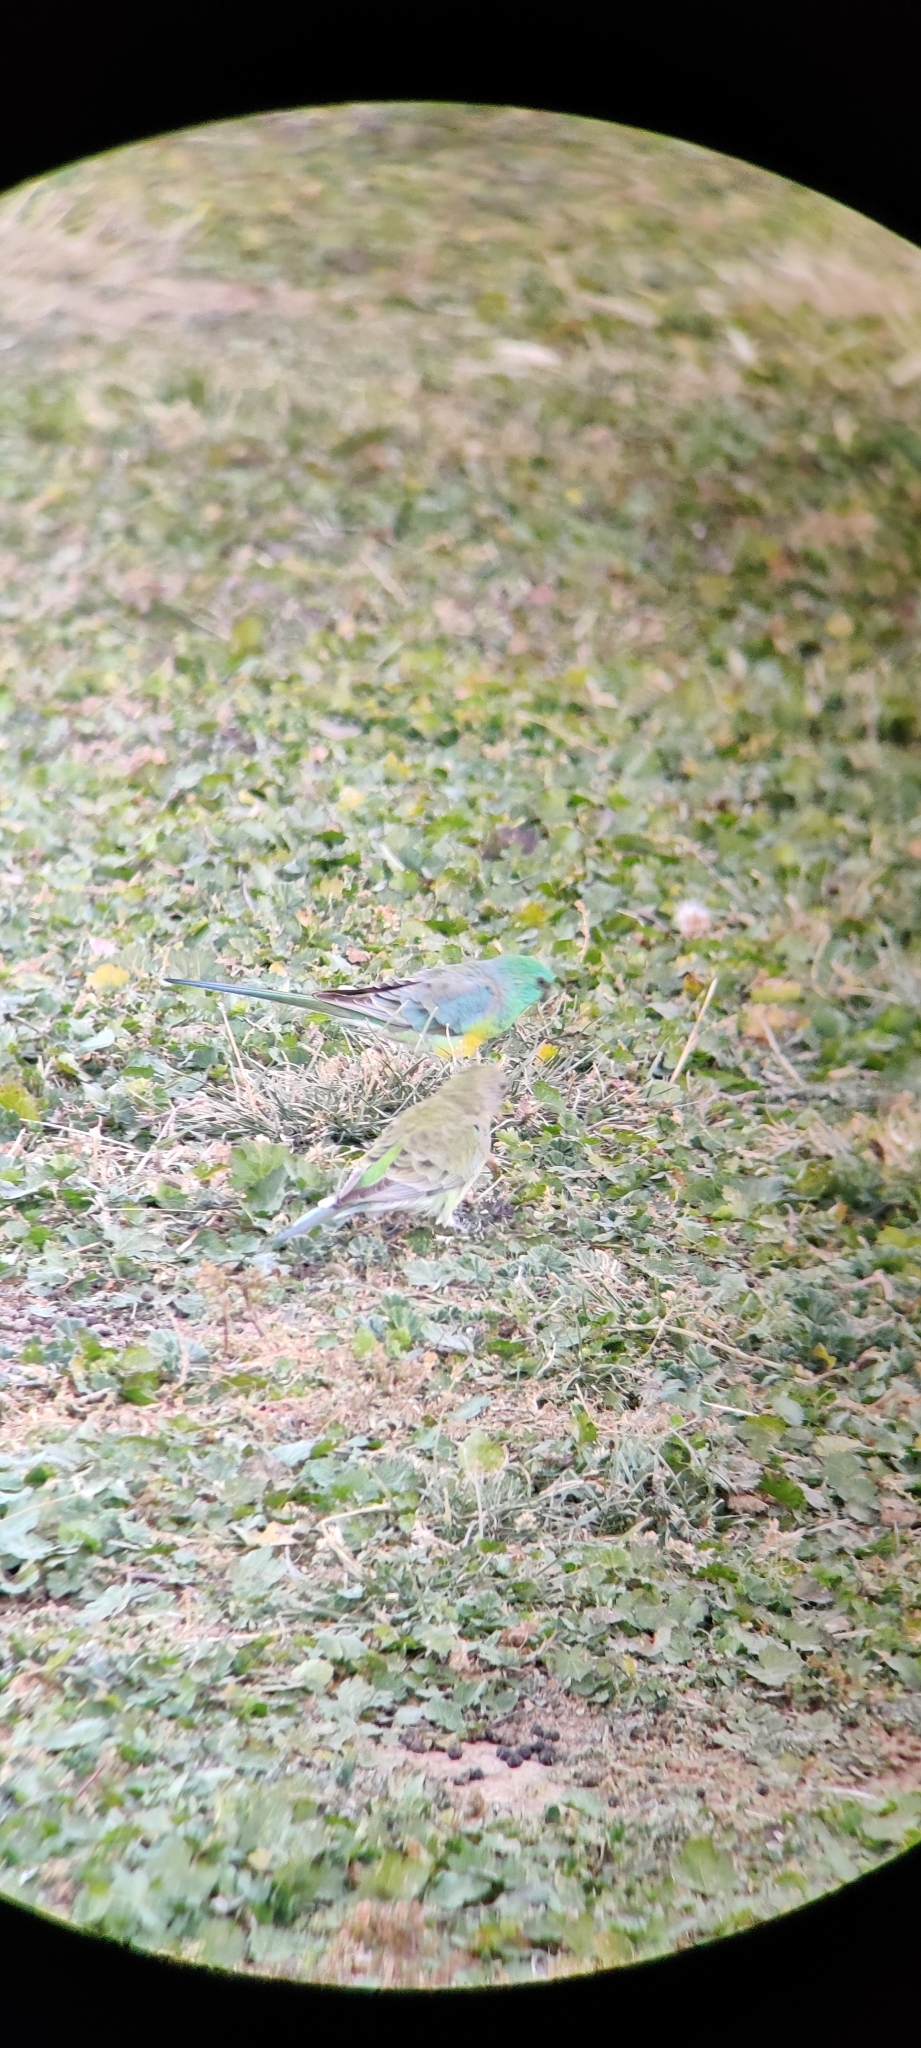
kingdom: Animalia
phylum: Chordata
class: Aves
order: Psittaciformes
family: Psittacidae
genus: Psephotus
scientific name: Psephotus haematonotus
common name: Red-rumped parrot
